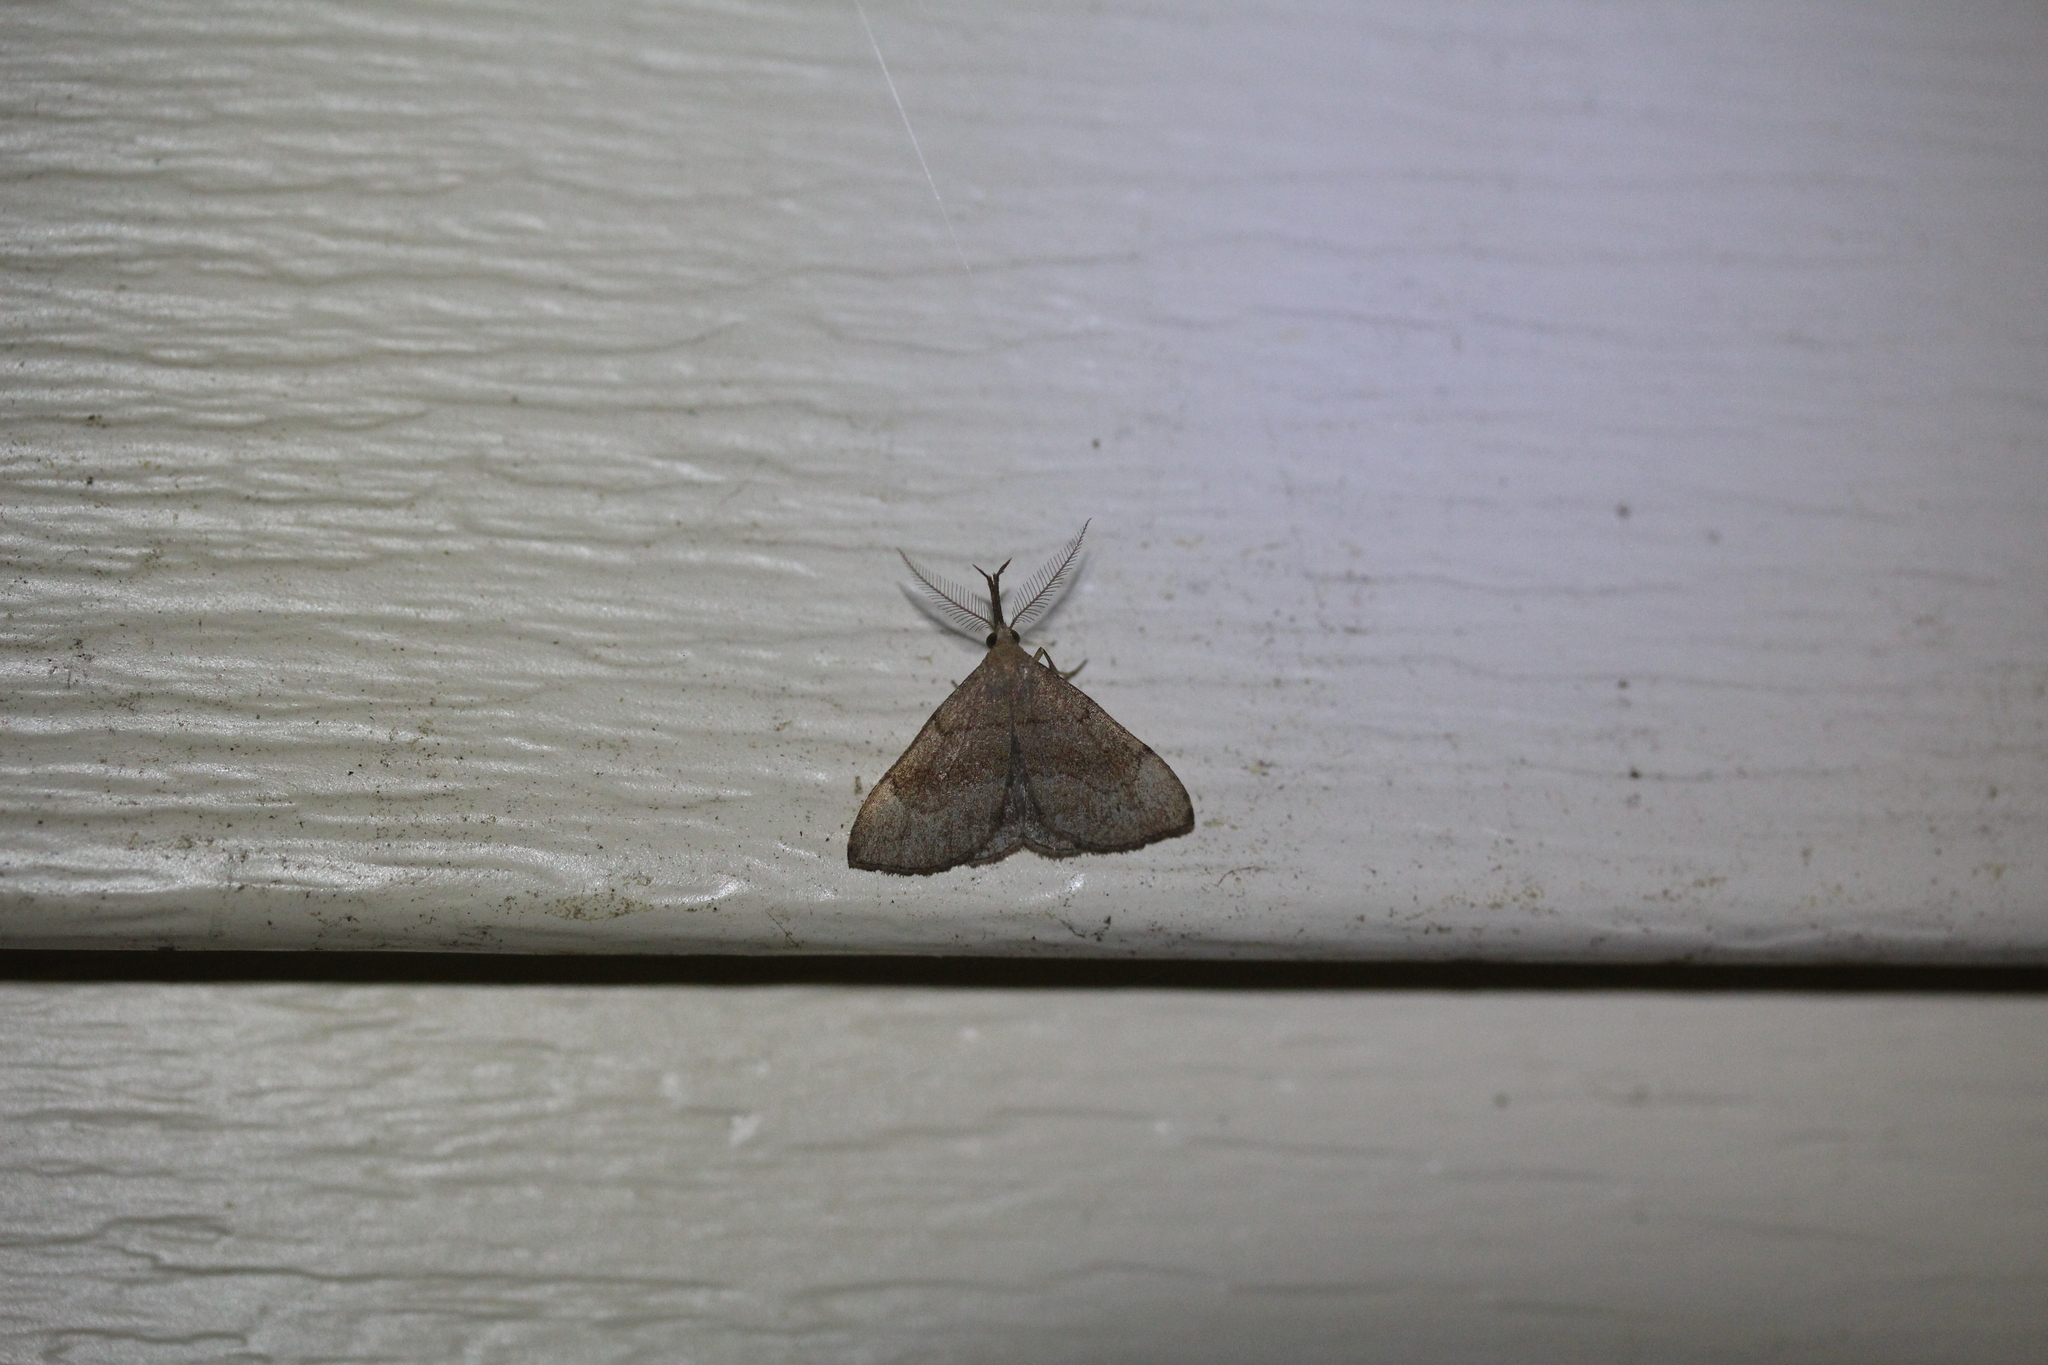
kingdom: Animalia
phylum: Arthropoda
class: Insecta
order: Lepidoptera
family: Erebidae
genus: Phalaenostola
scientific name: Phalaenostola metonalis
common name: Pale phalaenostola moth
